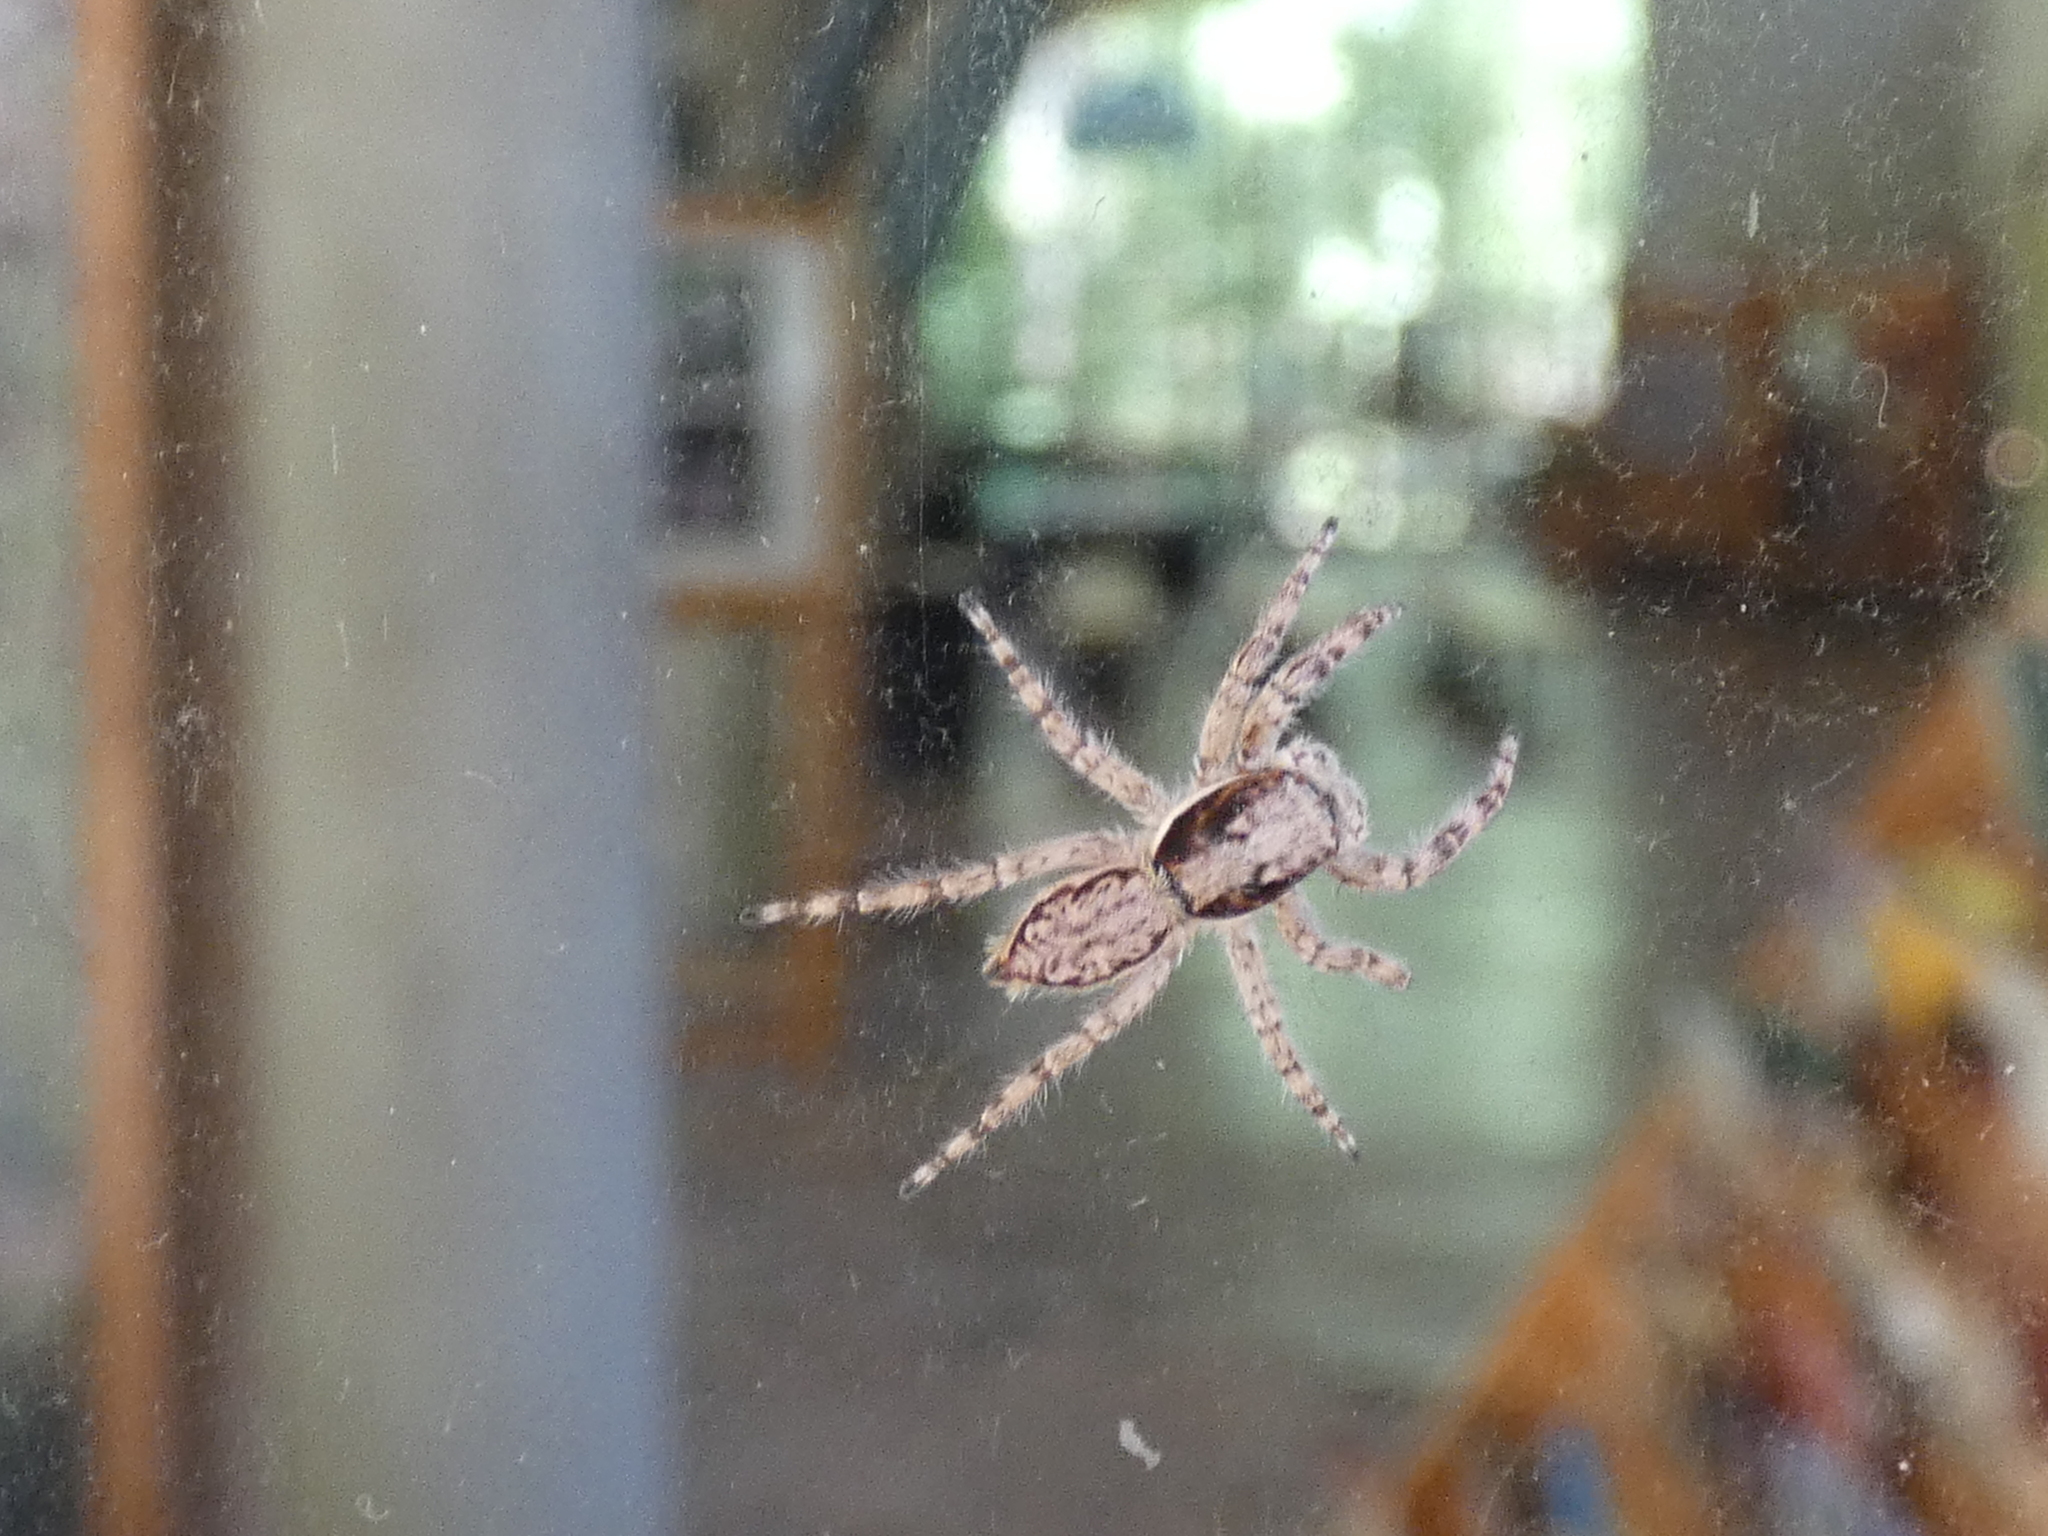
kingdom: Animalia
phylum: Arthropoda
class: Arachnida
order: Araneae
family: Salticidae
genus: Menemerus
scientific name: Menemerus bivittatus
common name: Gray wall jumper
